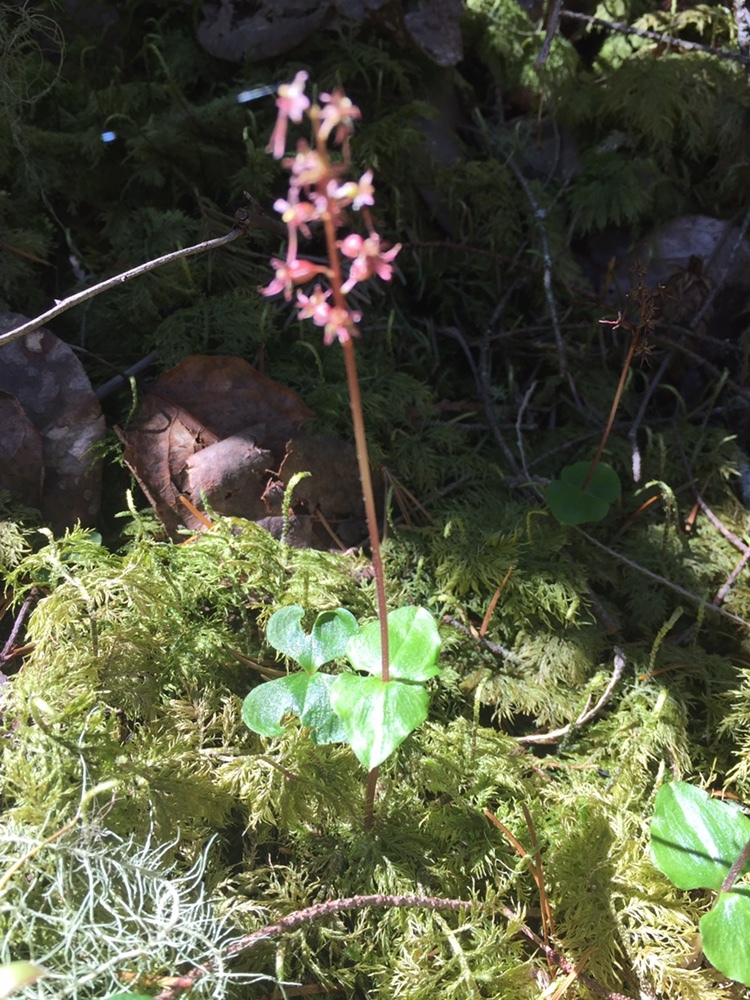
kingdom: Plantae
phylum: Tracheophyta
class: Liliopsida
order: Asparagales
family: Orchidaceae
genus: Neottia
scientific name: Neottia cordata
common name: Lesser twayblade
